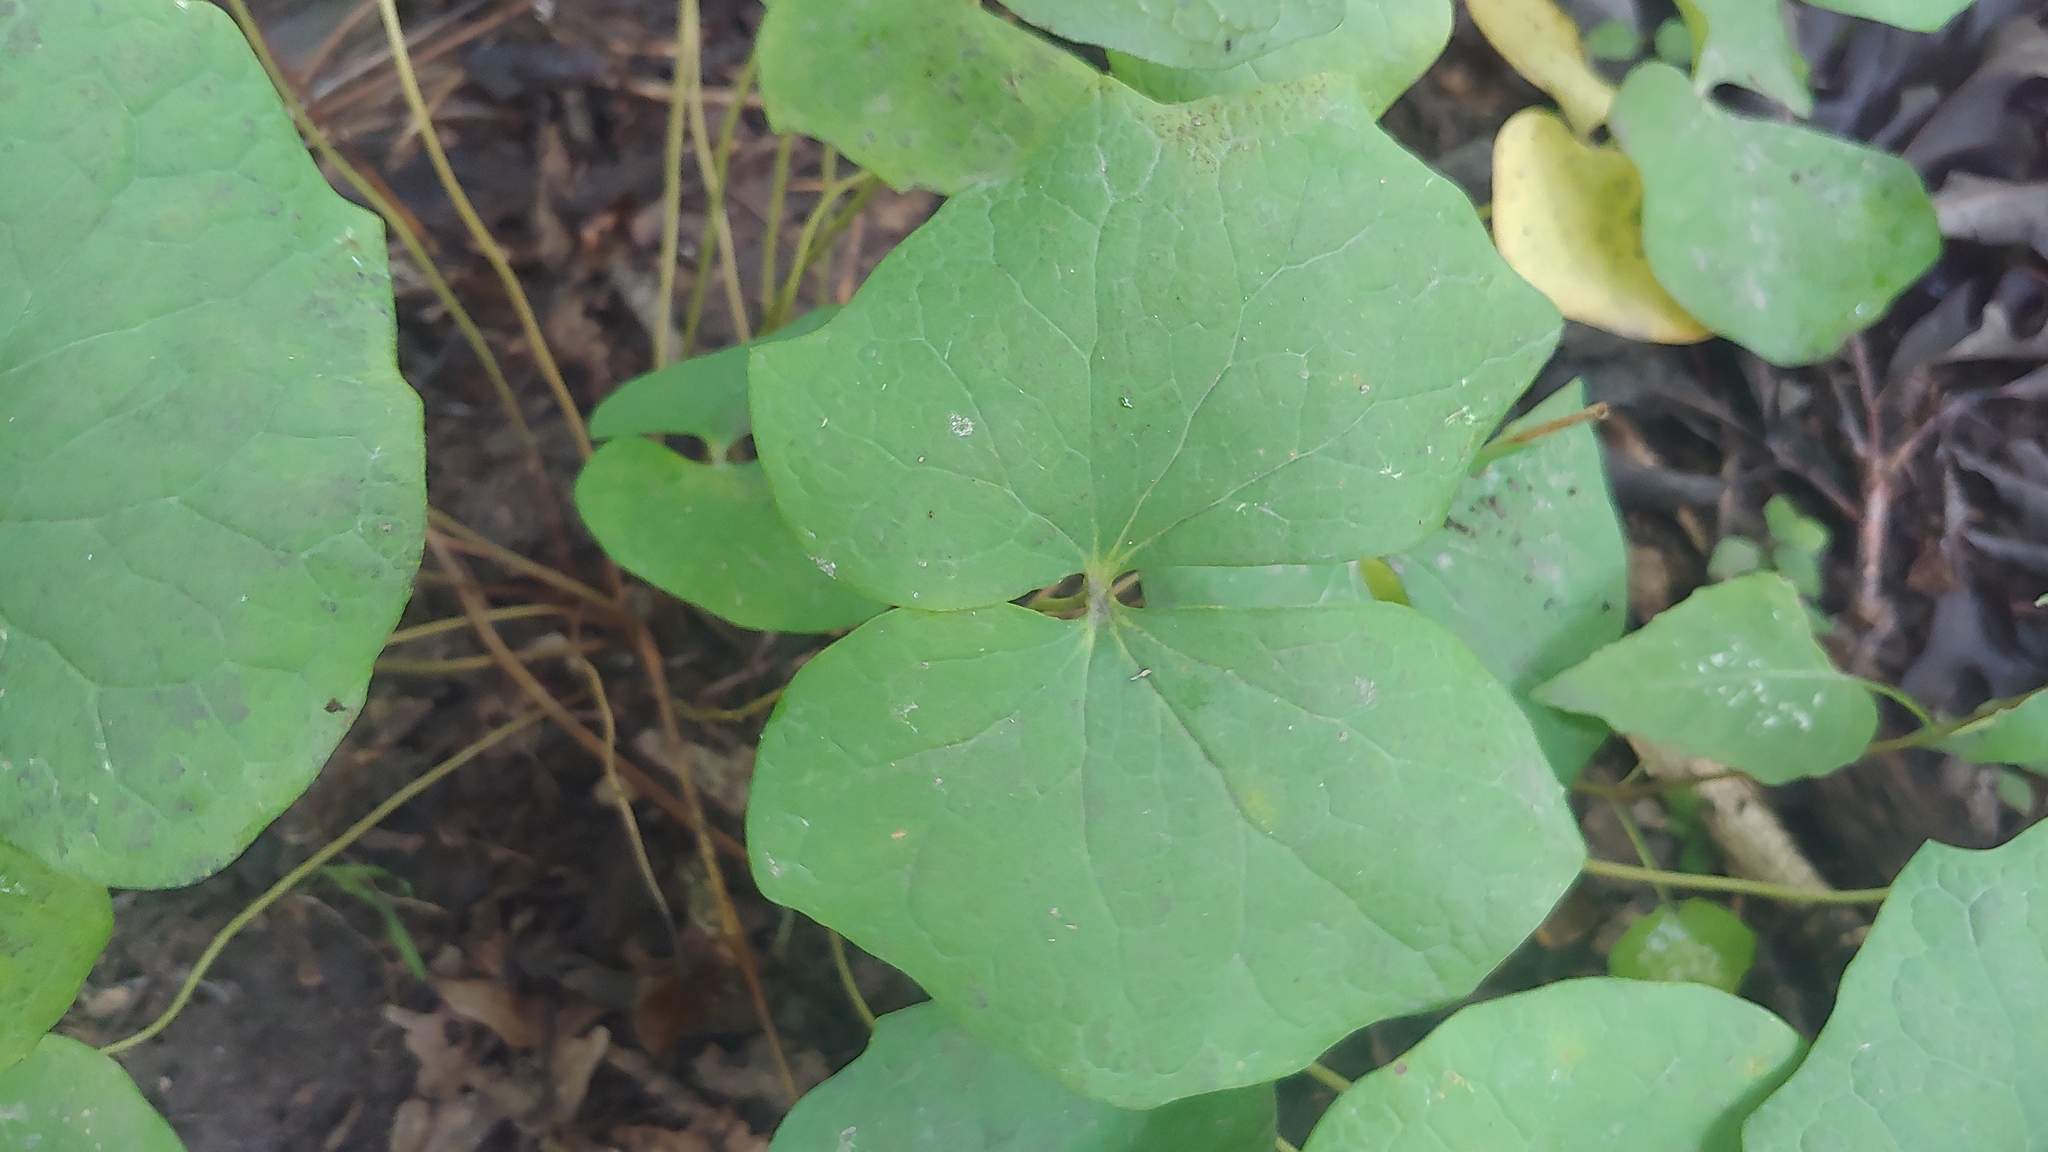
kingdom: Plantae
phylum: Tracheophyta
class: Magnoliopsida
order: Ranunculales
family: Berberidaceae
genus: Jeffersonia
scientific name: Jeffersonia diphylla
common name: Rheumatism-root
